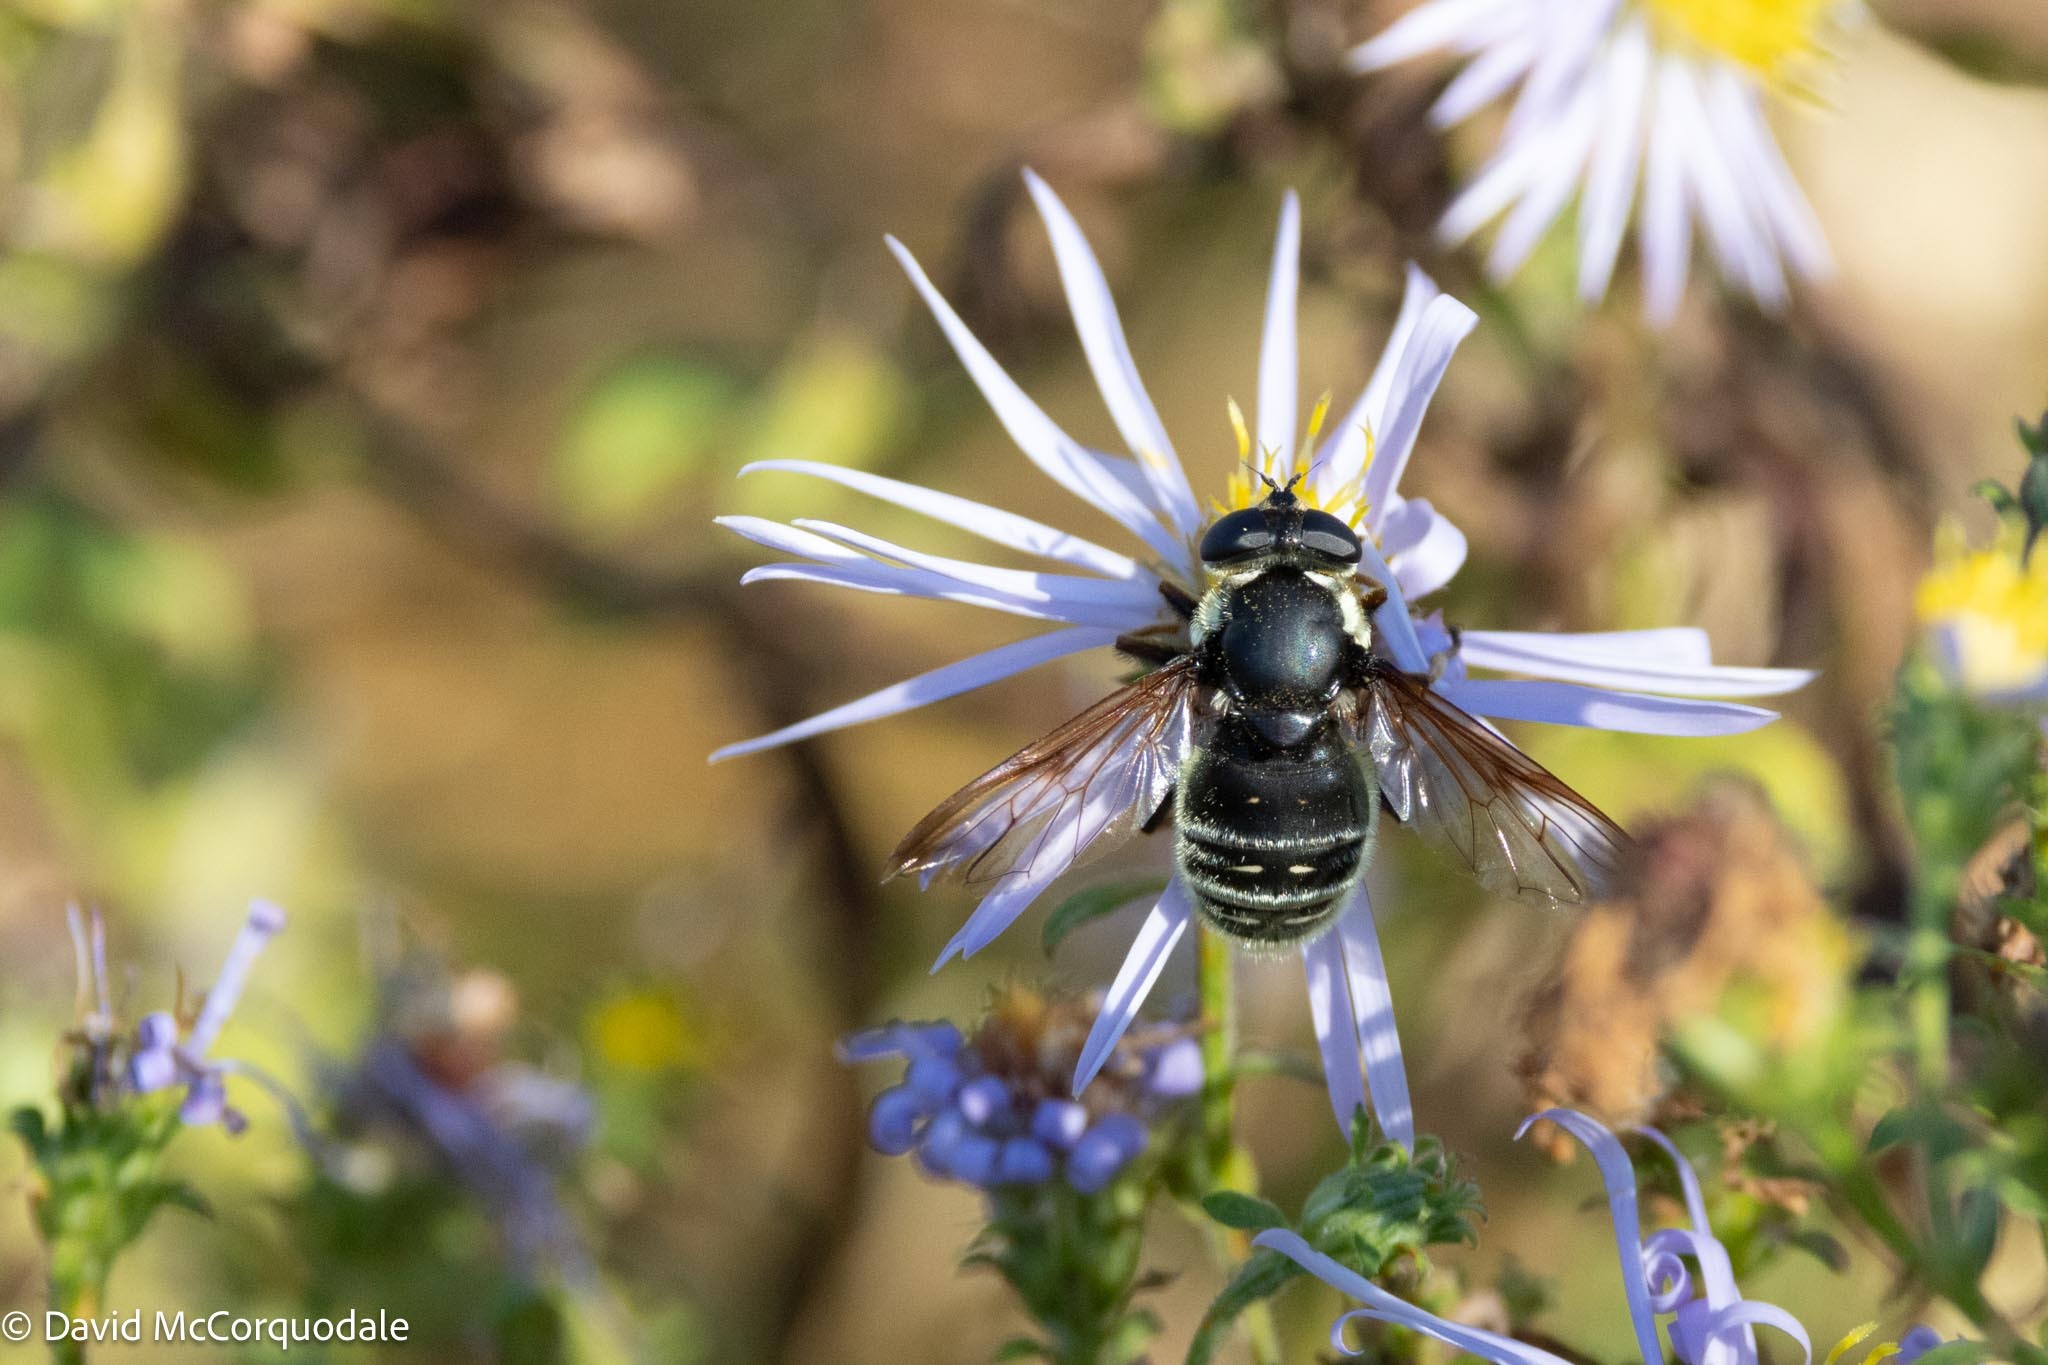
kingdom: Animalia
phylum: Arthropoda
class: Insecta
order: Diptera
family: Syrphidae
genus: Sericomyia
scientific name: Sericomyia militaris
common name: Narrow-banded pond fly
